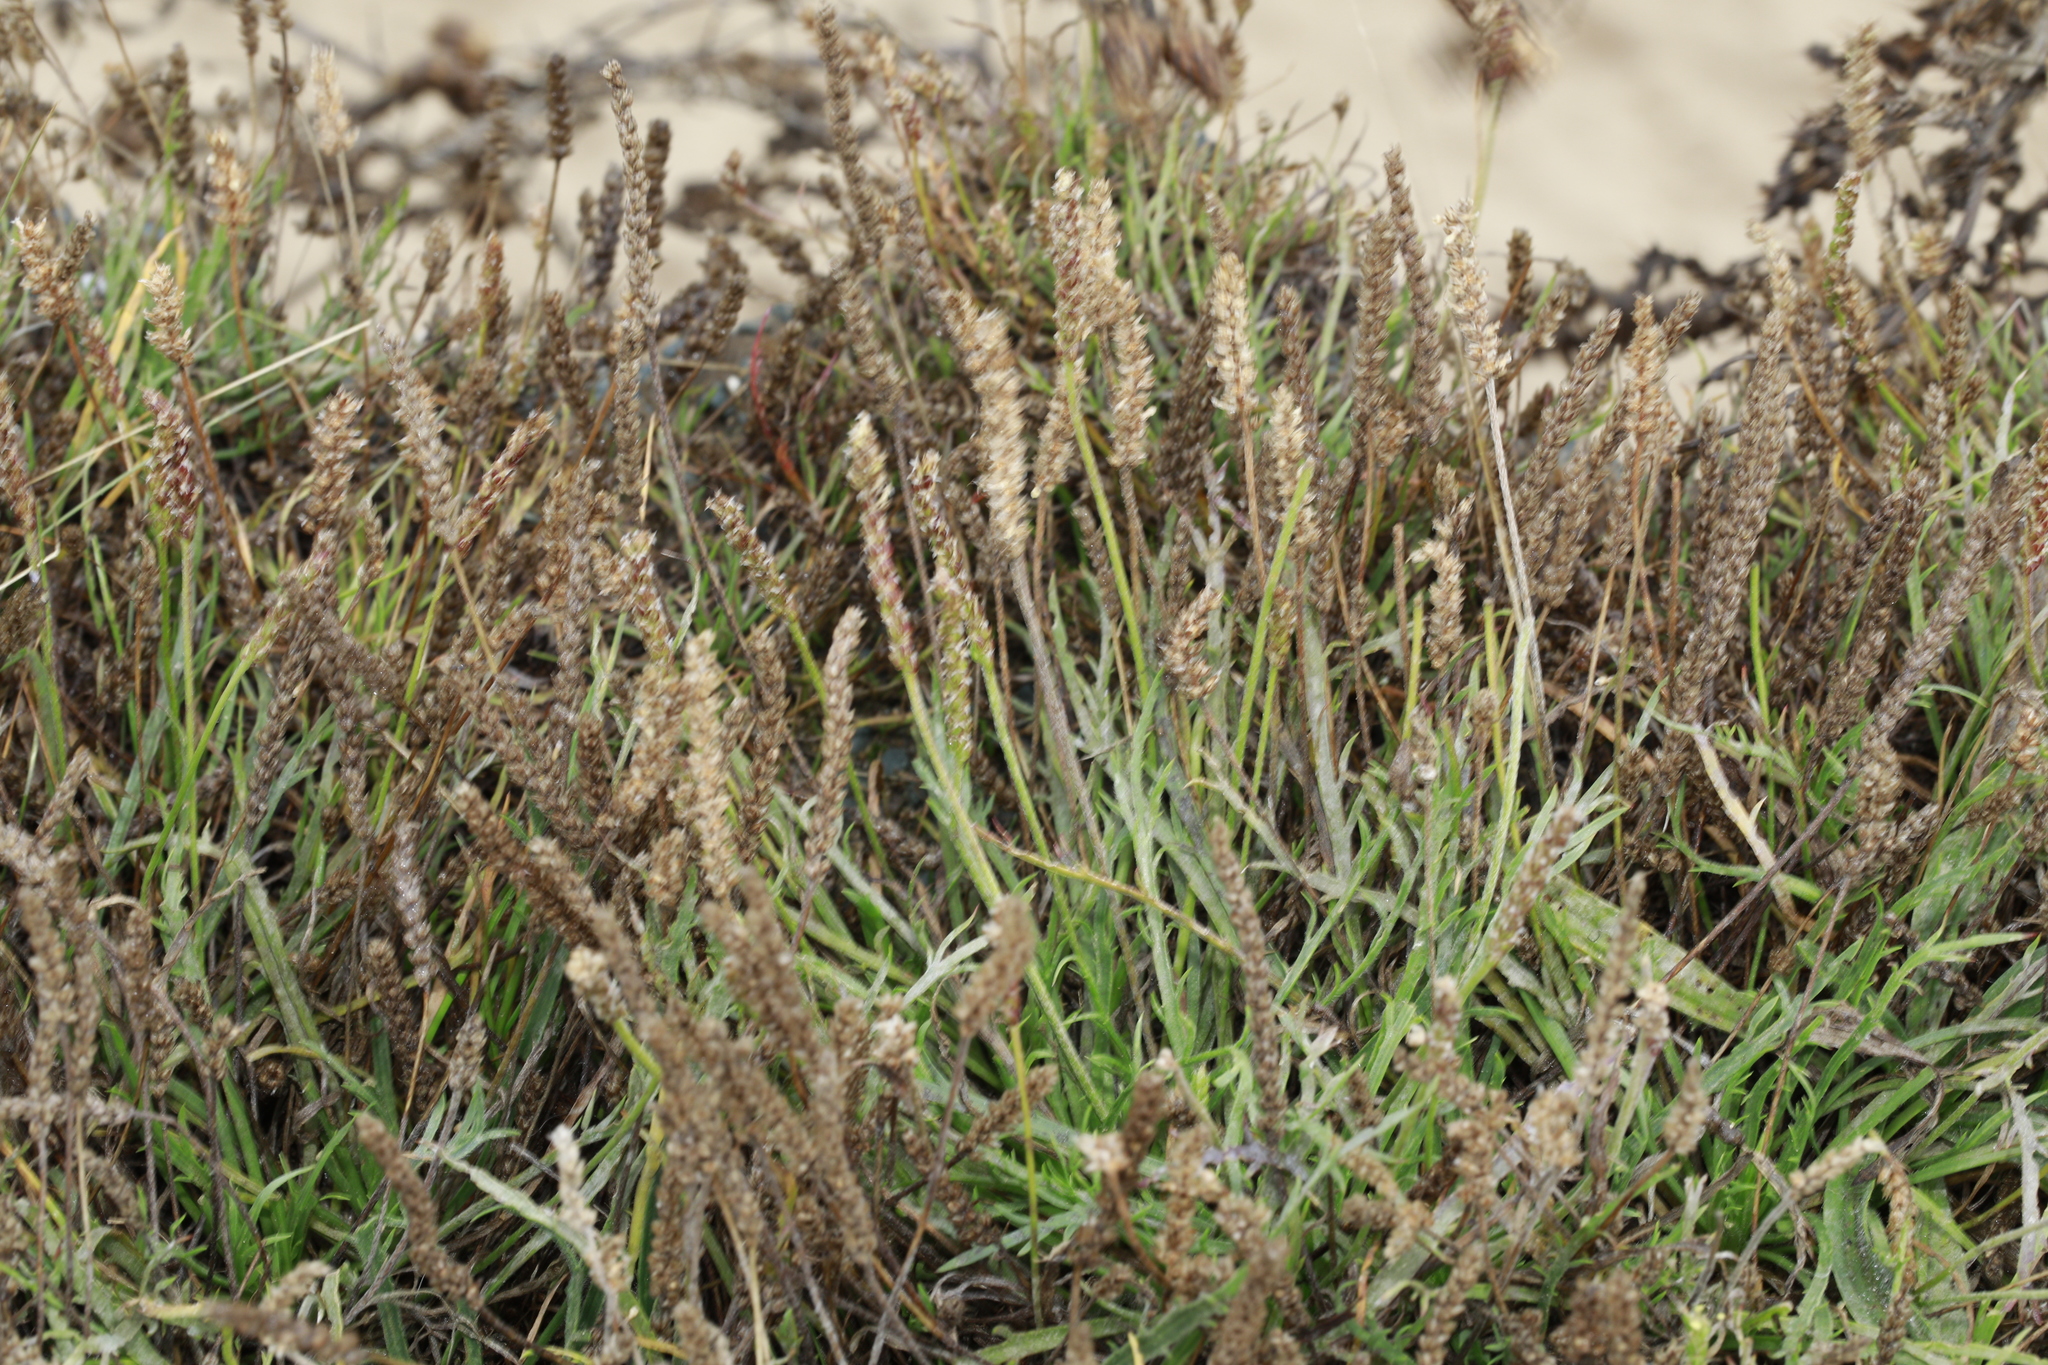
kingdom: Plantae
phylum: Tracheophyta
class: Magnoliopsida
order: Lamiales
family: Plantaginaceae
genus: Plantago
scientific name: Plantago coronopus
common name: Buck's-horn plantain
